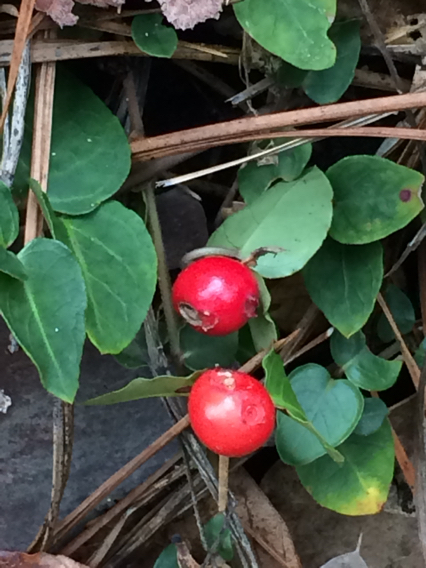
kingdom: Plantae
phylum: Tracheophyta
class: Magnoliopsida
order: Gentianales
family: Rubiaceae
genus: Mitchella
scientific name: Mitchella repens
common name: Partridge-berry
